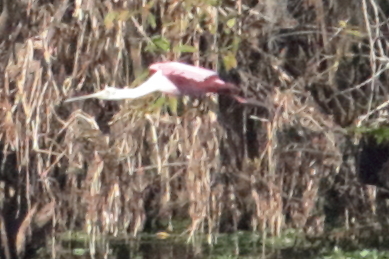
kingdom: Animalia
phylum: Chordata
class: Aves
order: Pelecaniformes
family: Threskiornithidae
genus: Platalea
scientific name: Platalea ajaja
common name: Roseate spoonbill
